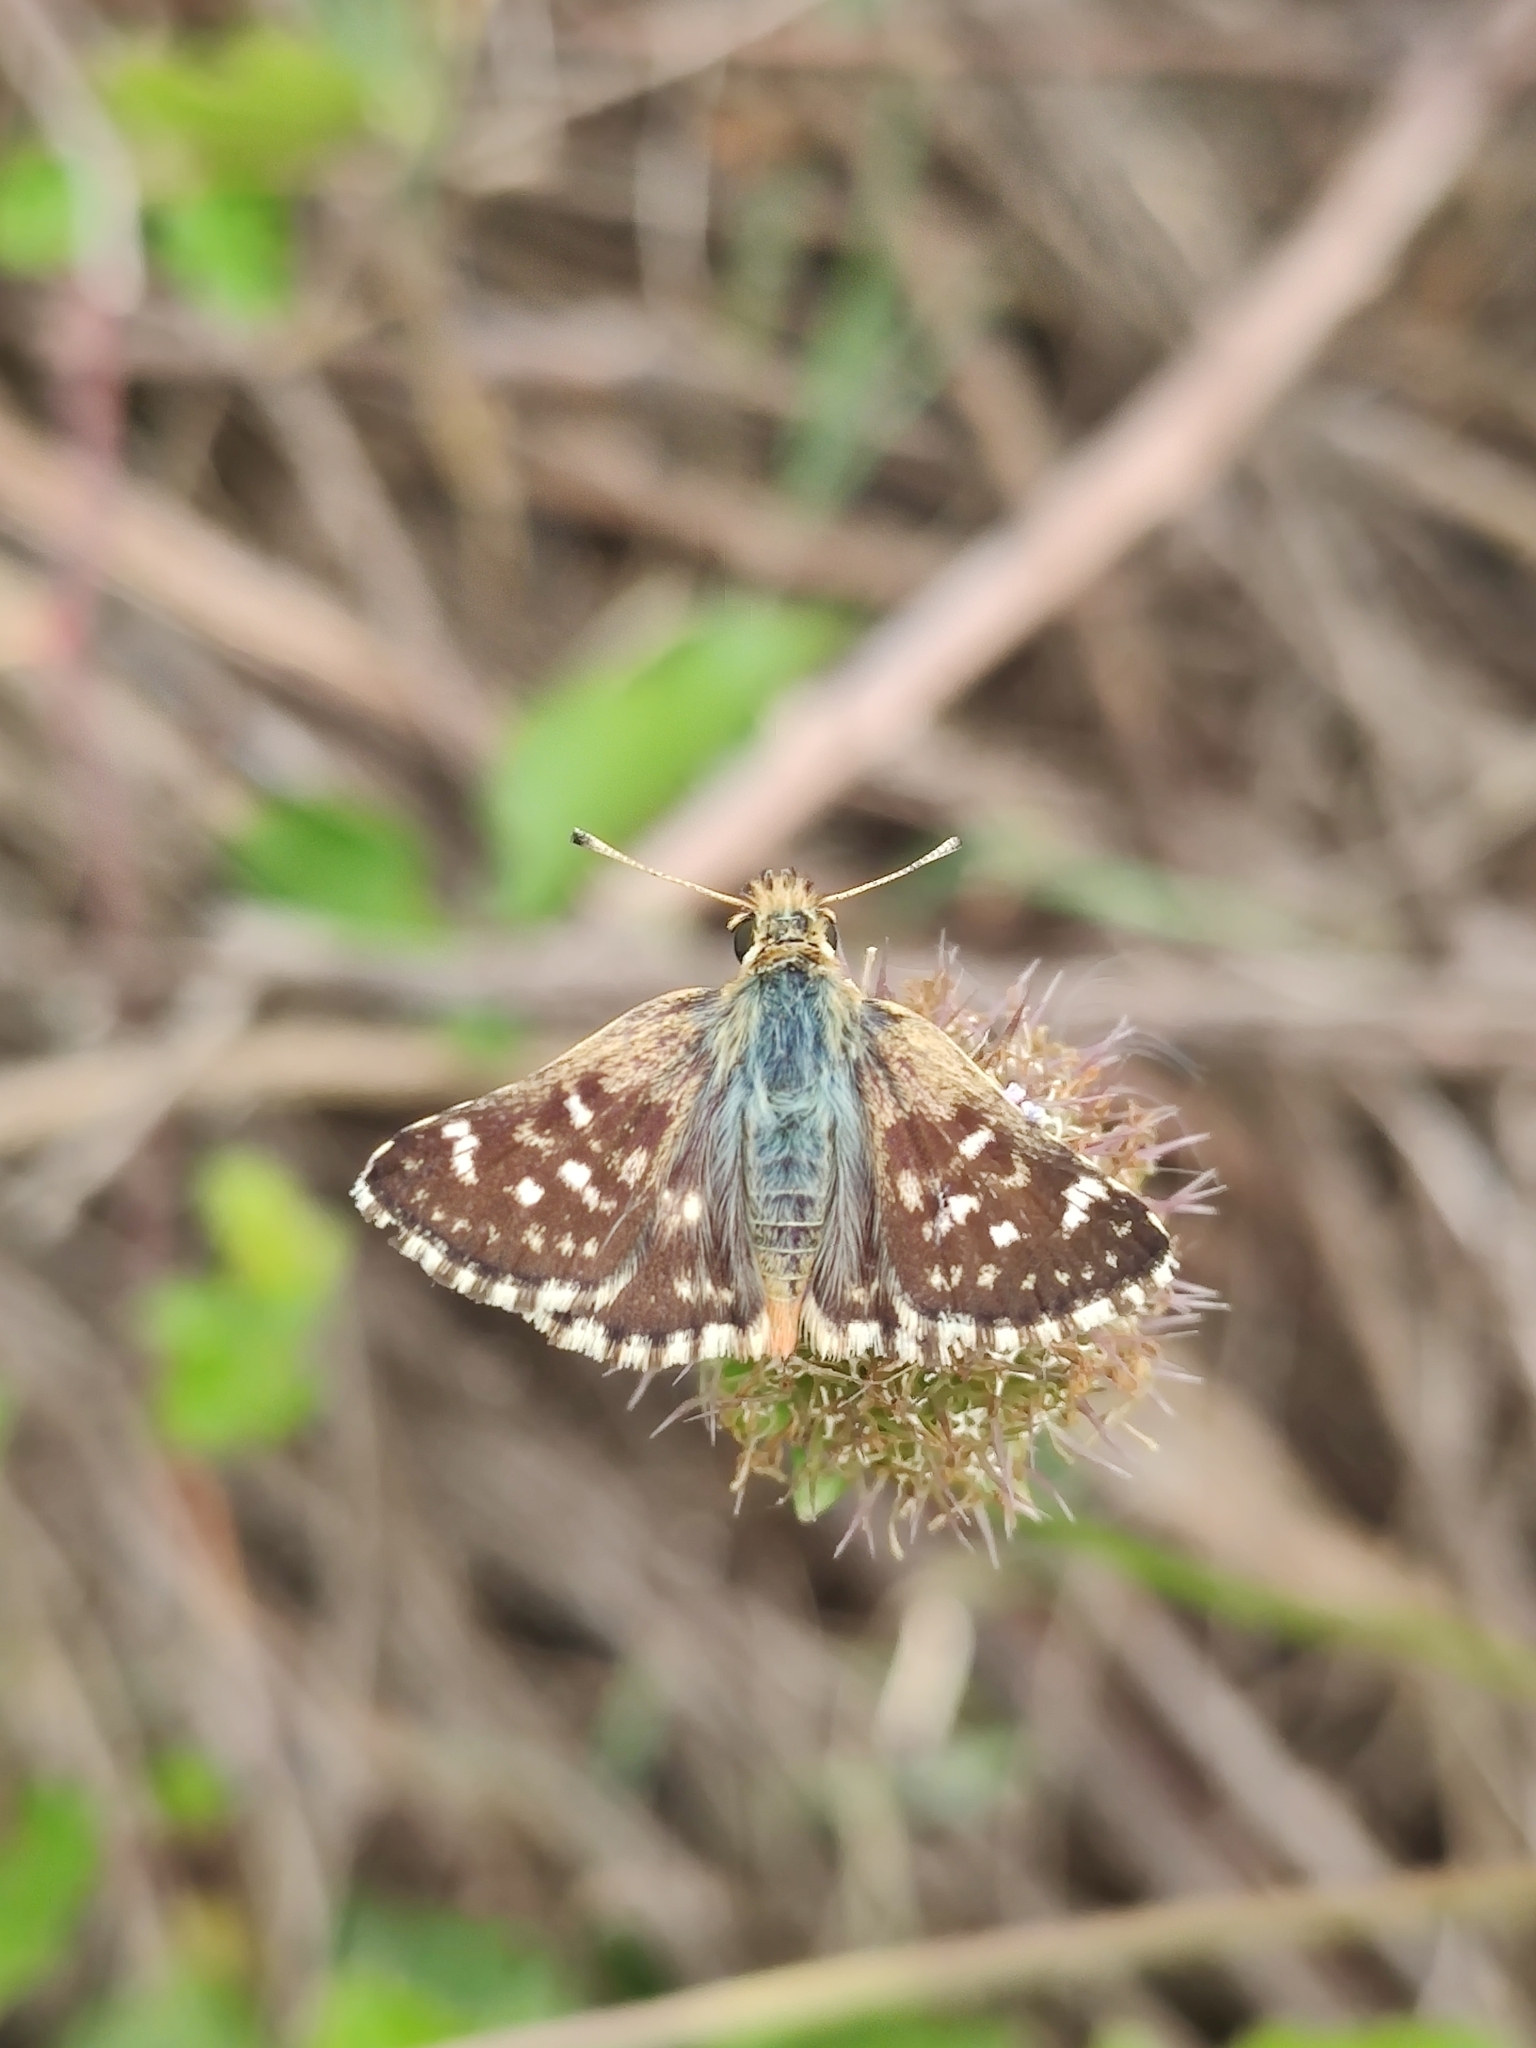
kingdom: Animalia
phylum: Arthropoda
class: Insecta
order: Lepidoptera
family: Hesperiidae
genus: Spialia
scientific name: Spialia sertorius
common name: Red underwing skipper
